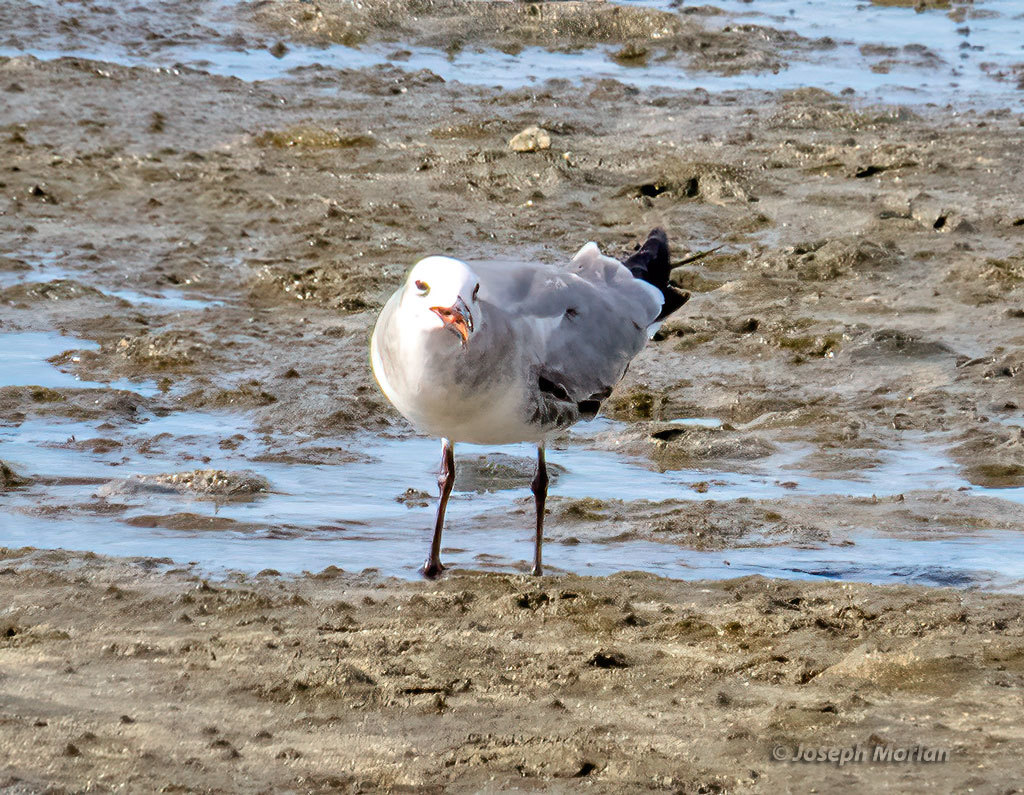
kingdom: Animalia
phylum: Chordata
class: Aves
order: Charadriiformes
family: Laridae
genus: Leucophaeus
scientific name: Leucophaeus atricilla
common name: Laughing gull
